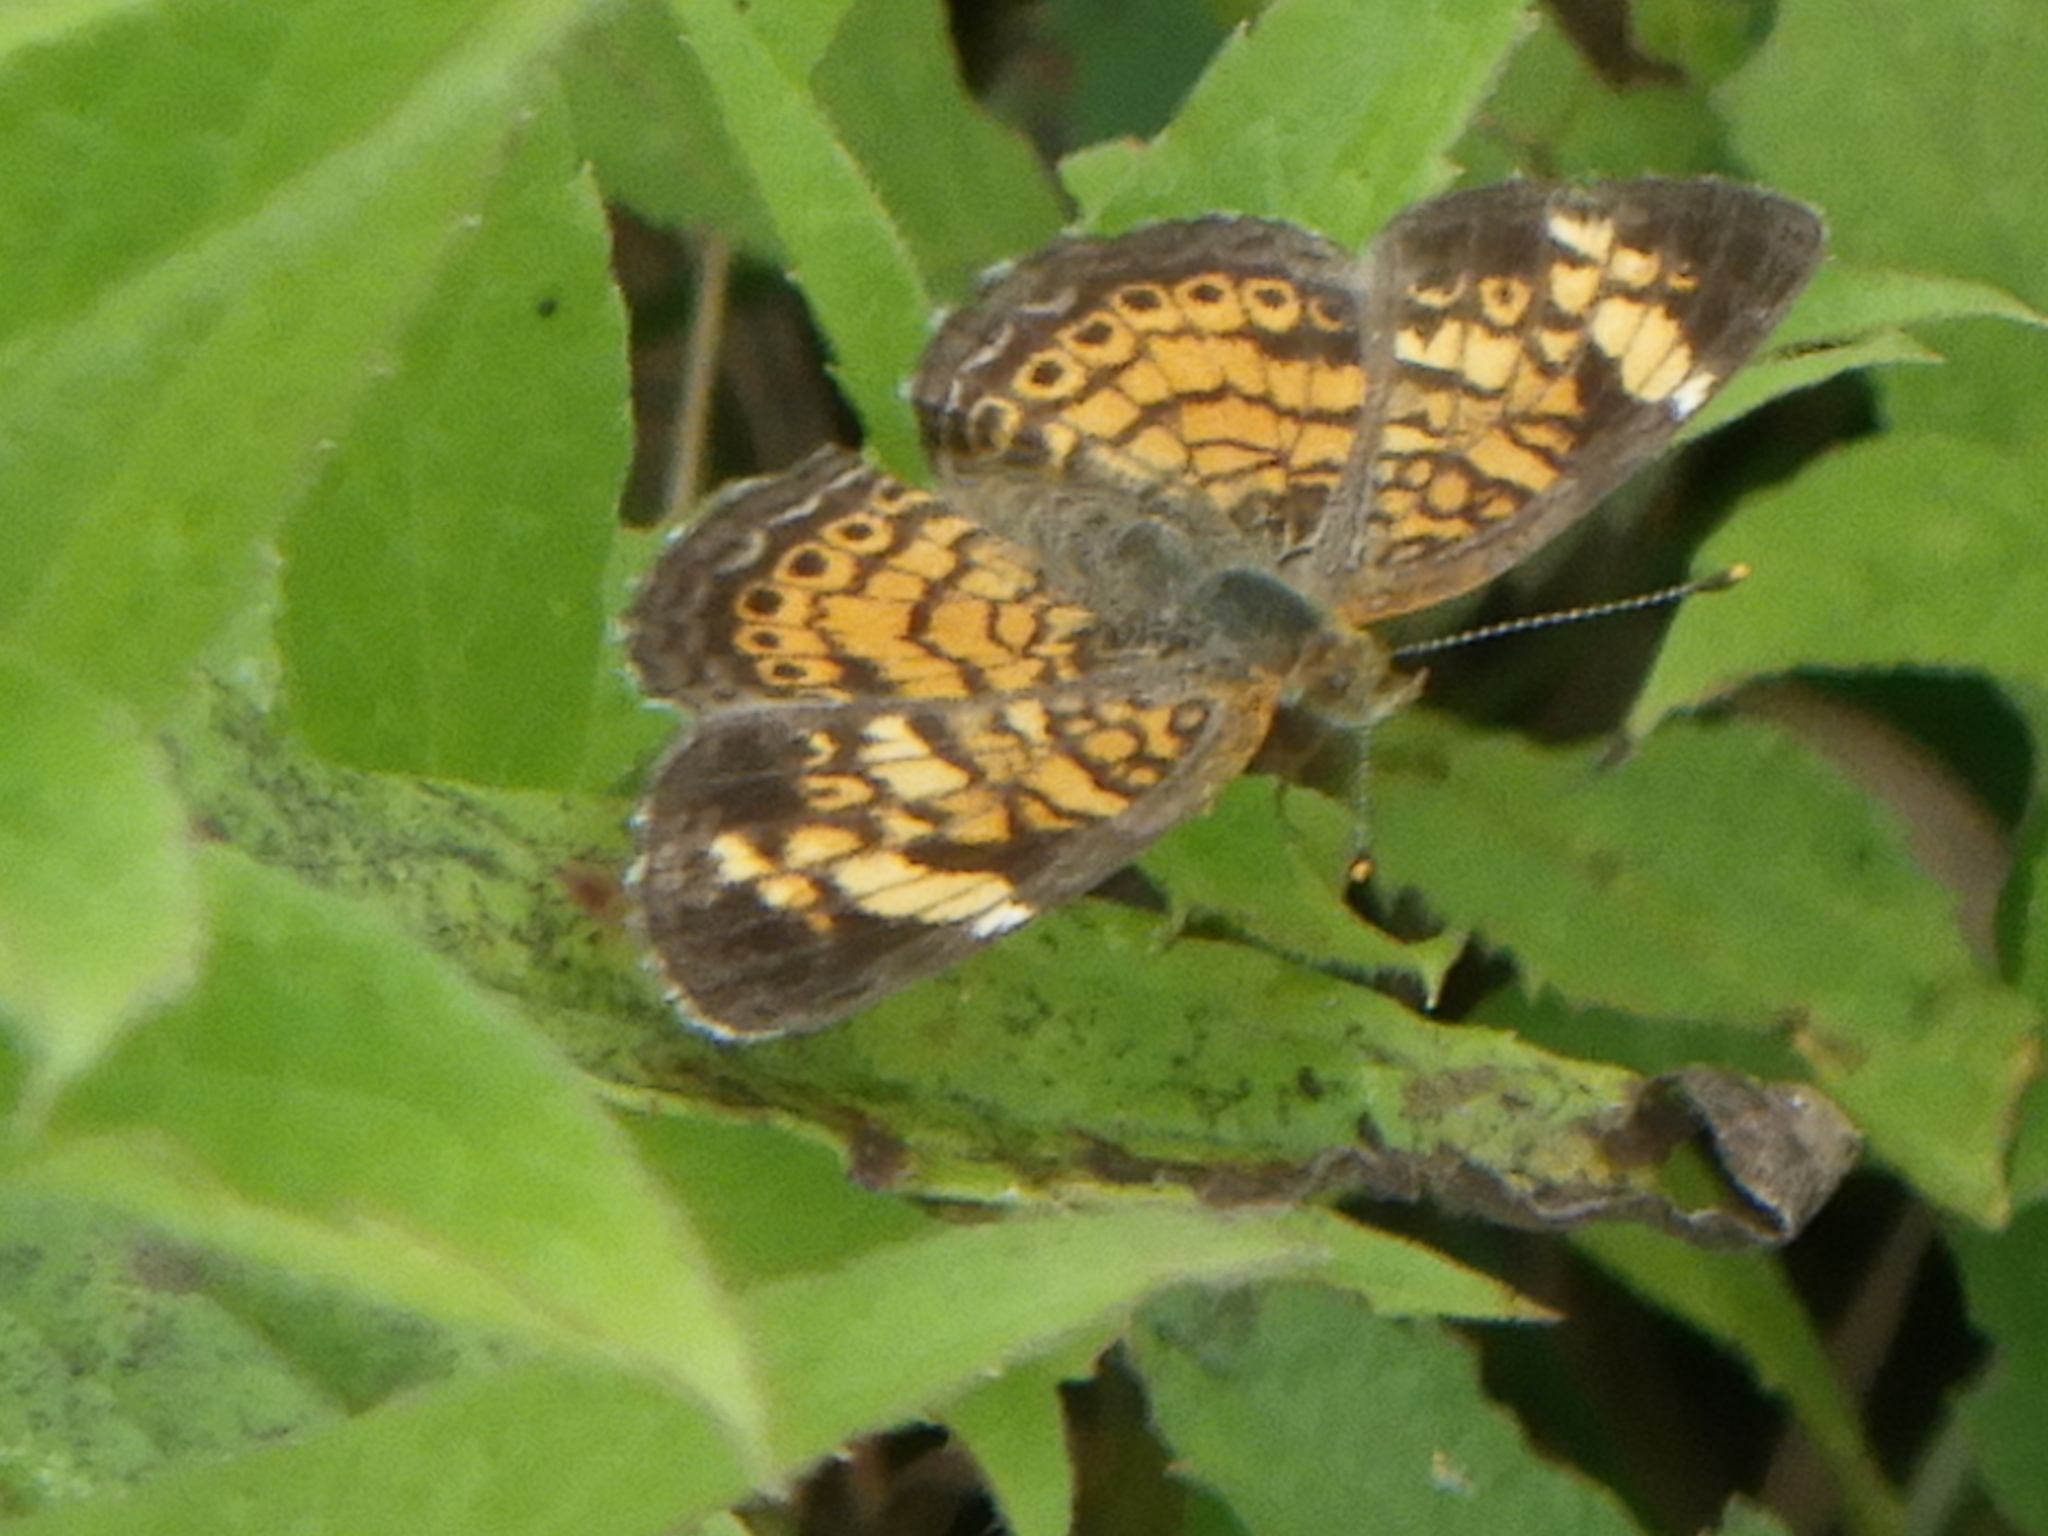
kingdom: Animalia
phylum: Arthropoda
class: Insecta
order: Lepidoptera
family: Nymphalidae
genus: Phyciodes
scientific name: Phyciodes tharos
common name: Pearl crescent
